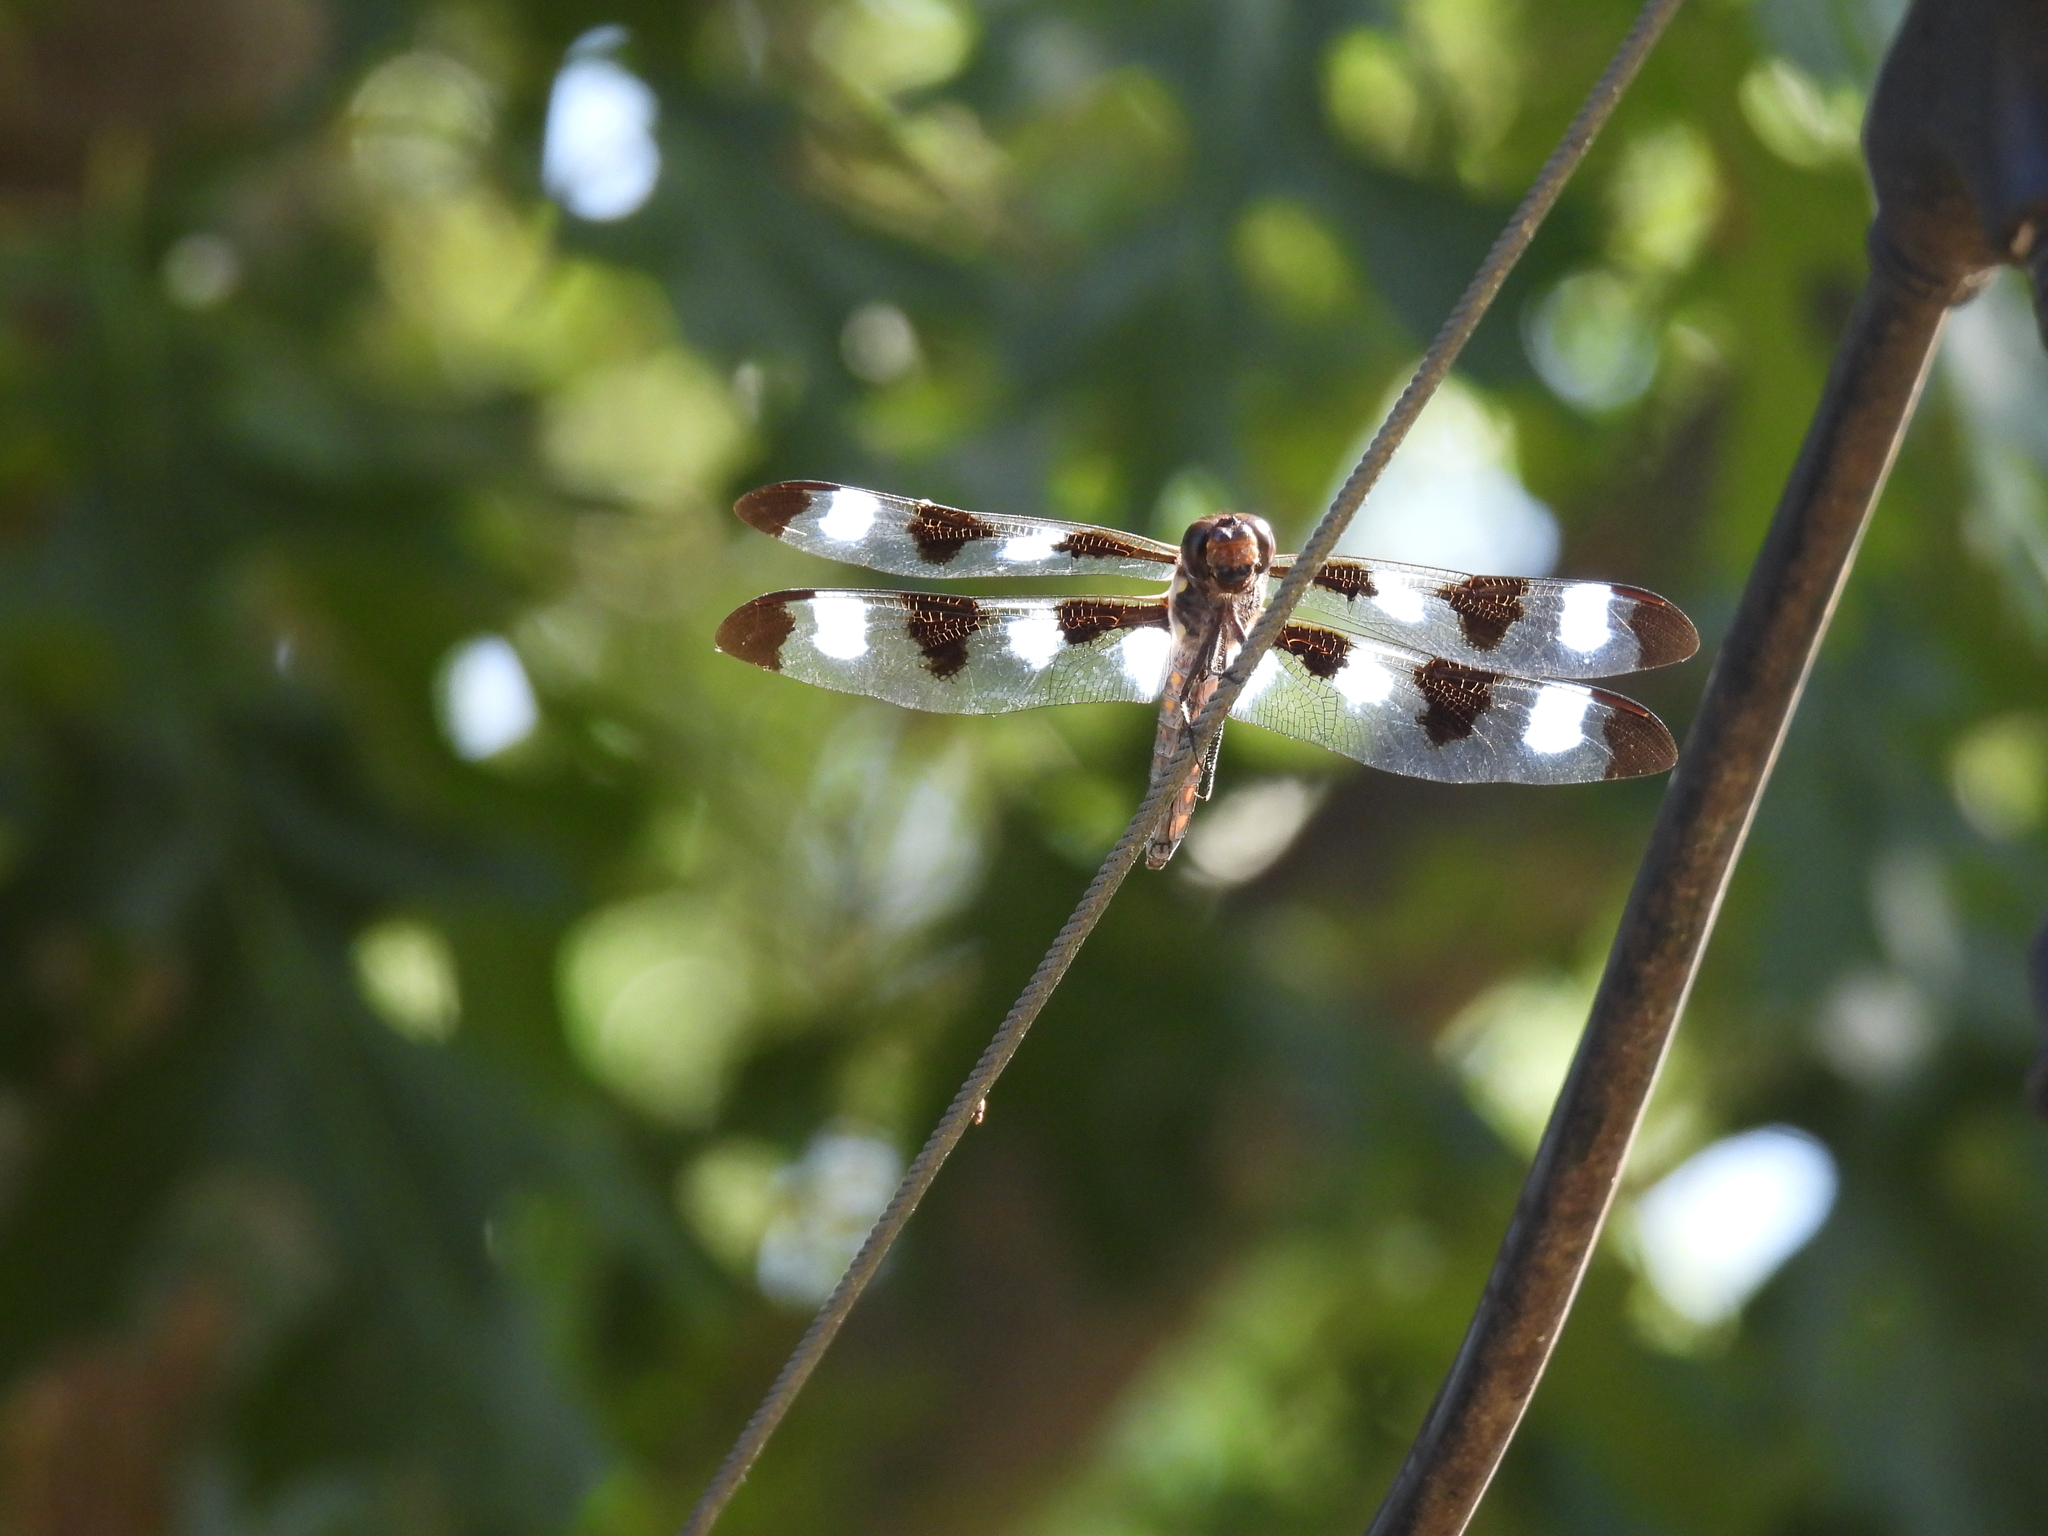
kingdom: Animalia
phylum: Arthropoda
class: Insecta
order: Odonata
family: Libellulidae
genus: Libellula
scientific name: Libellula pulchella
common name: Twelve-spotted skimmer
